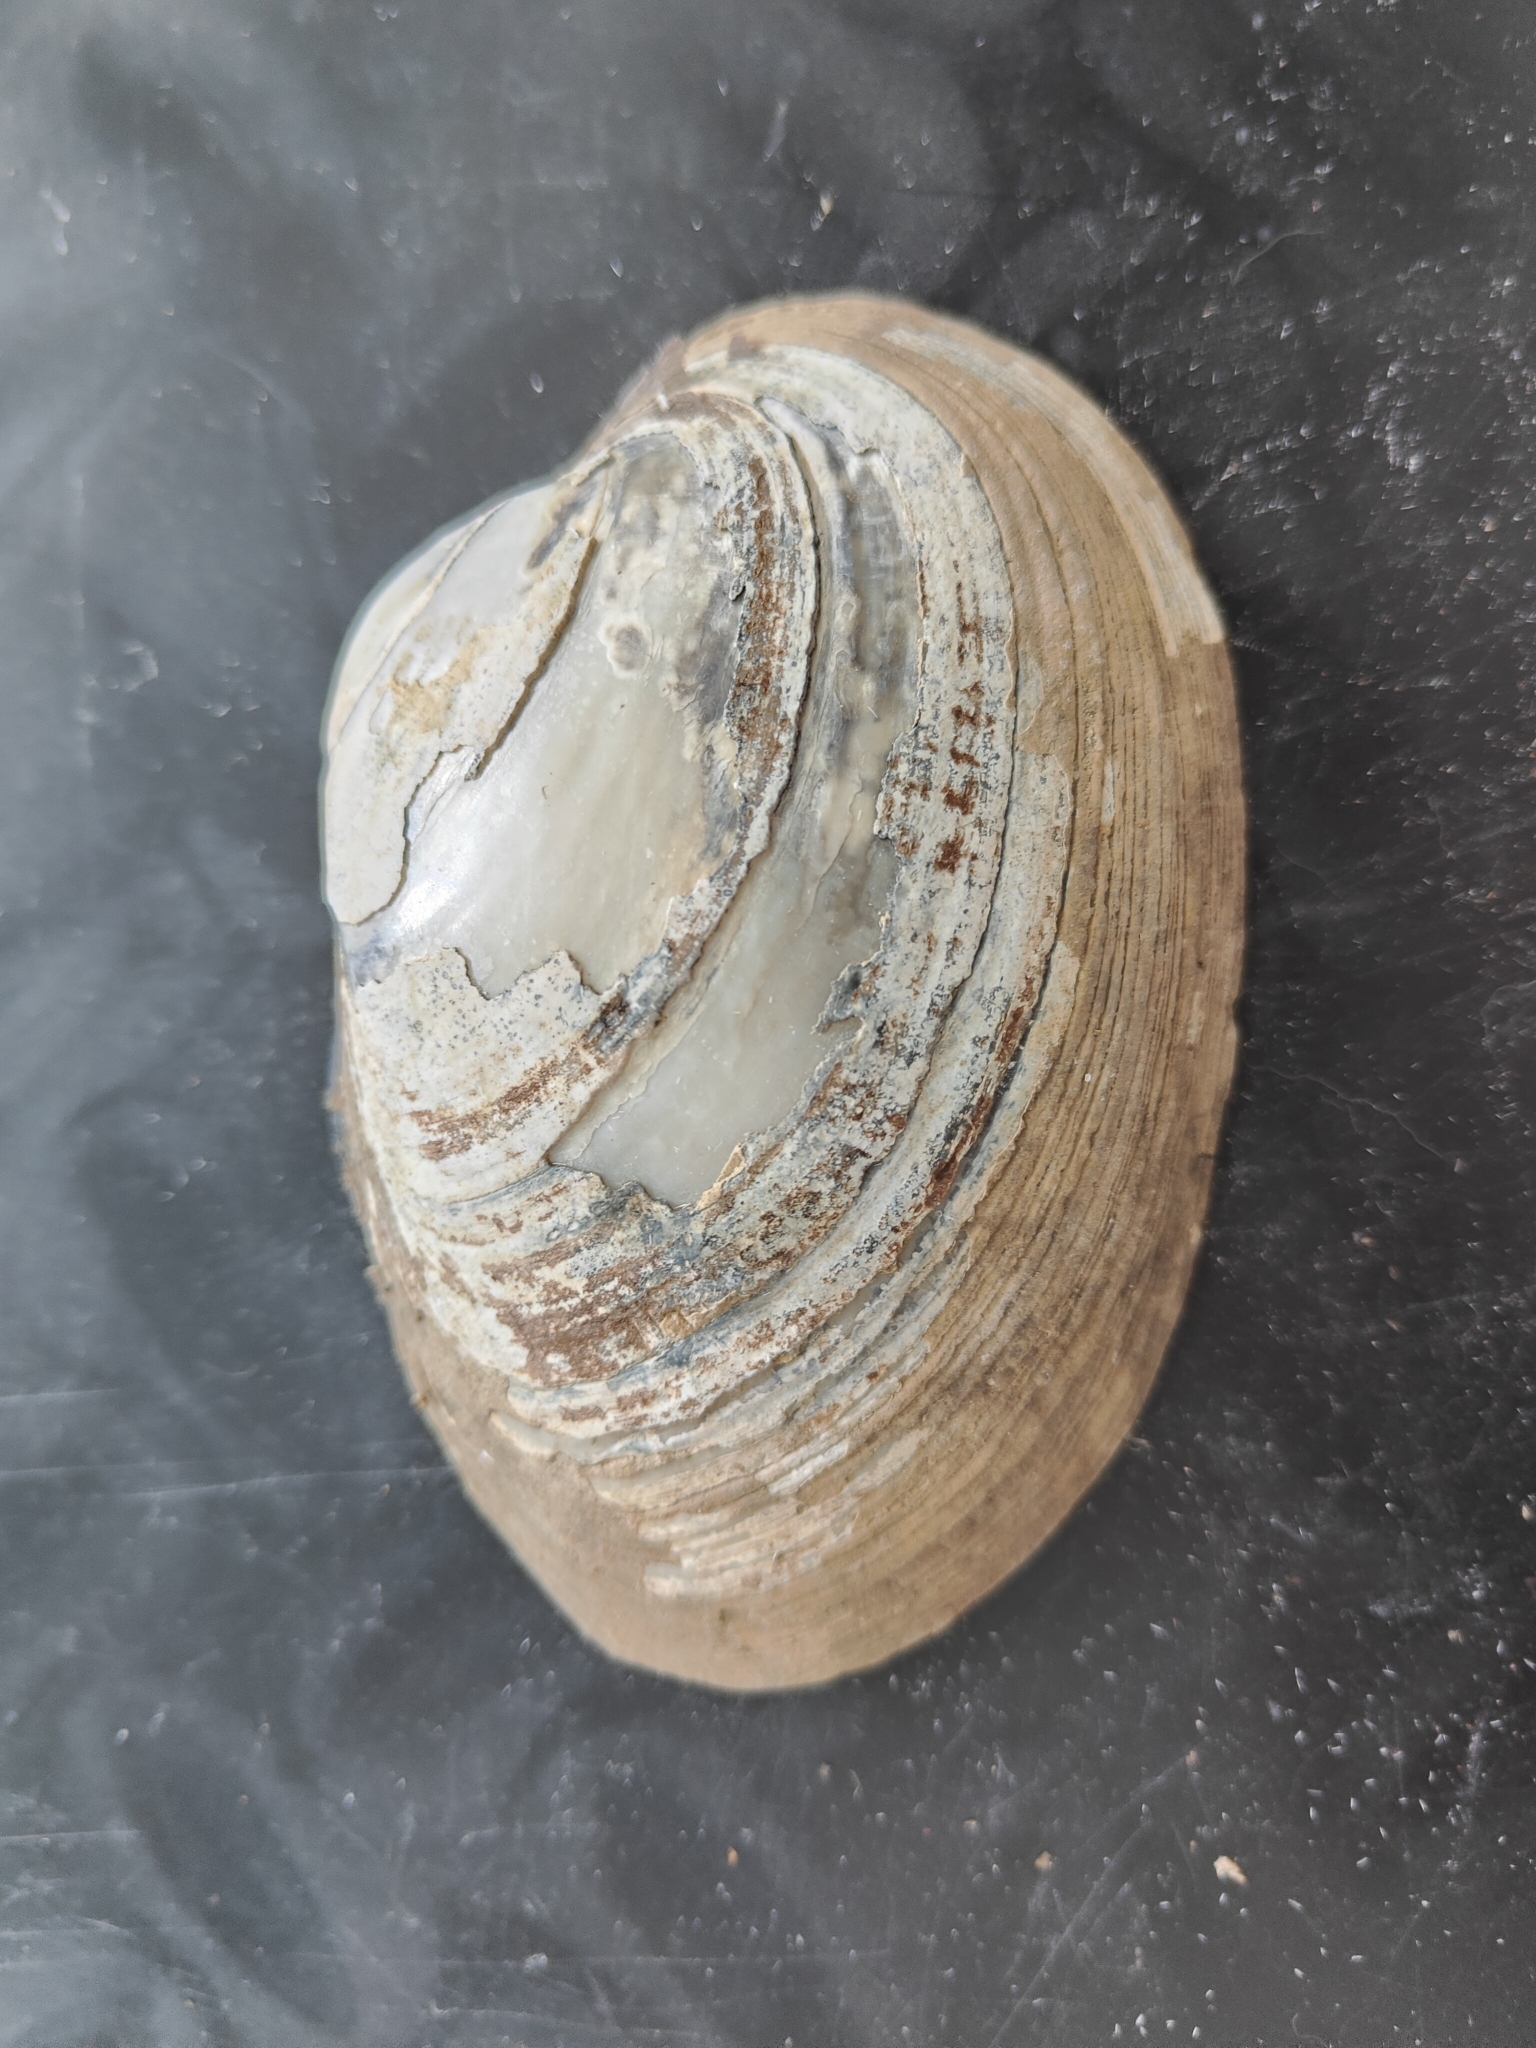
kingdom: Animalia
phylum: Mollusca
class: Bivalvia
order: Unionida
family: Unionidae
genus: Lampsilis
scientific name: Lampsilis cardium
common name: Plain pocketbook
